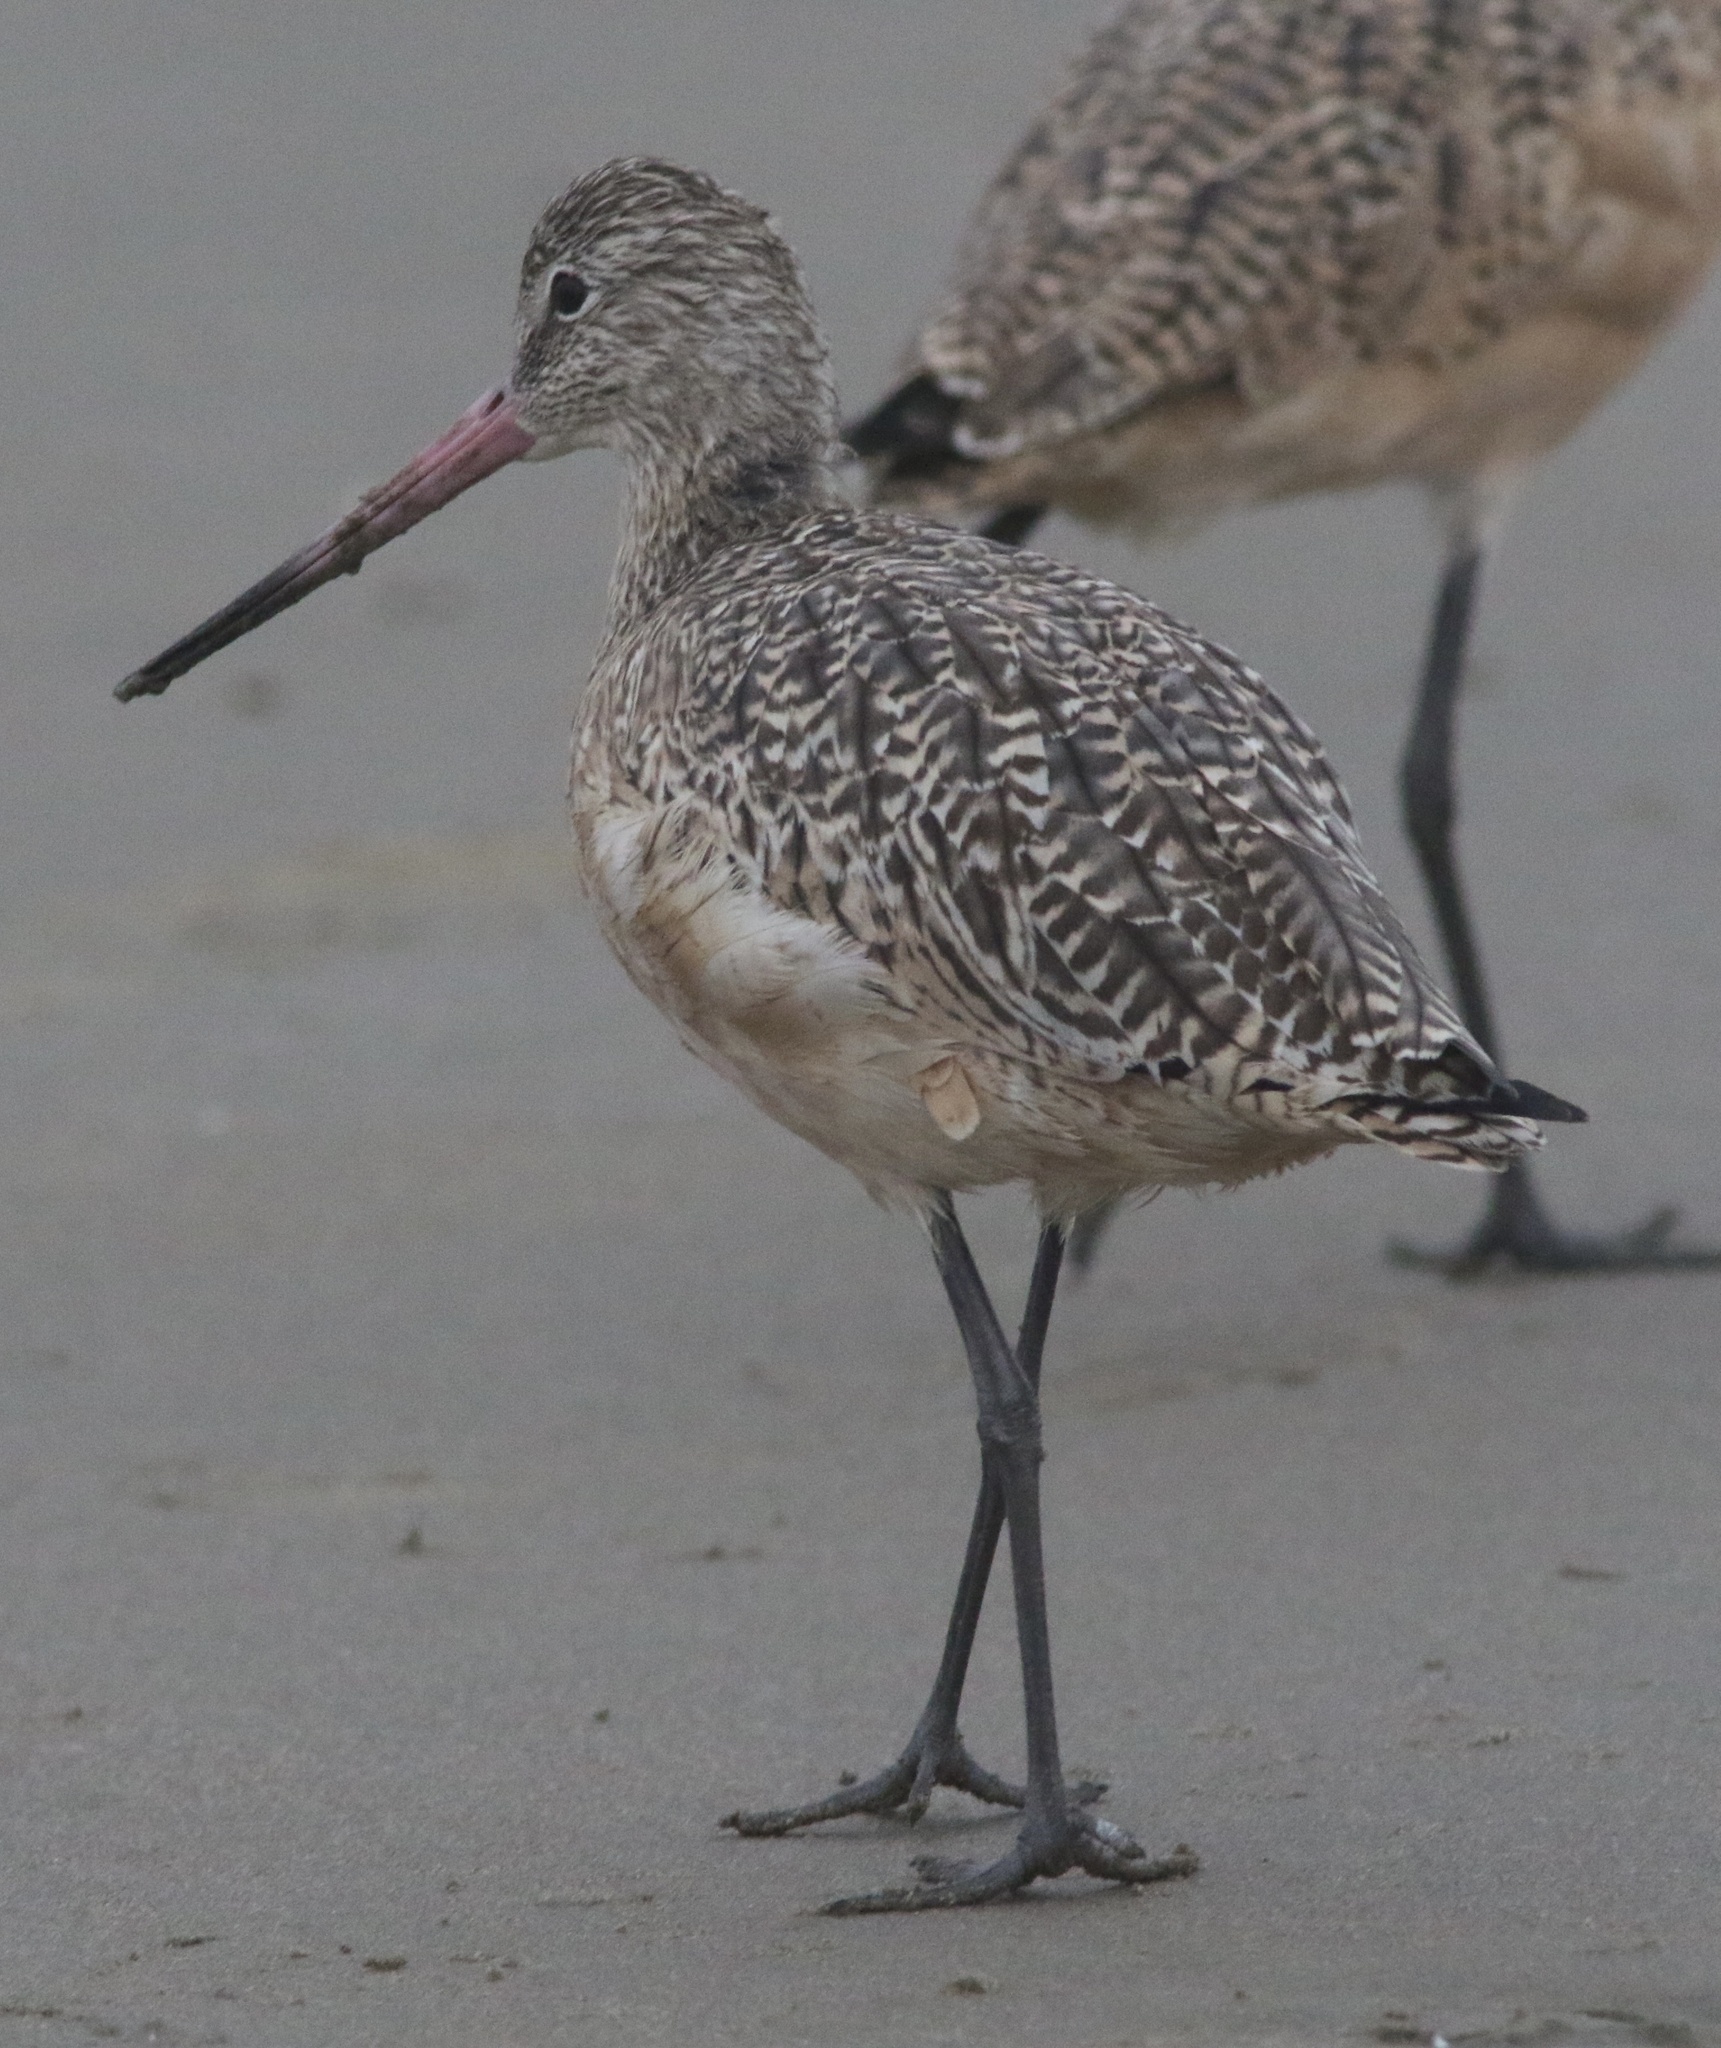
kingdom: Animalia
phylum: Chordata
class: Aves
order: Charadriiformes
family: Scolopacidae
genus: Limosa
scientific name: Limosa fedoa
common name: Marbled godwit
